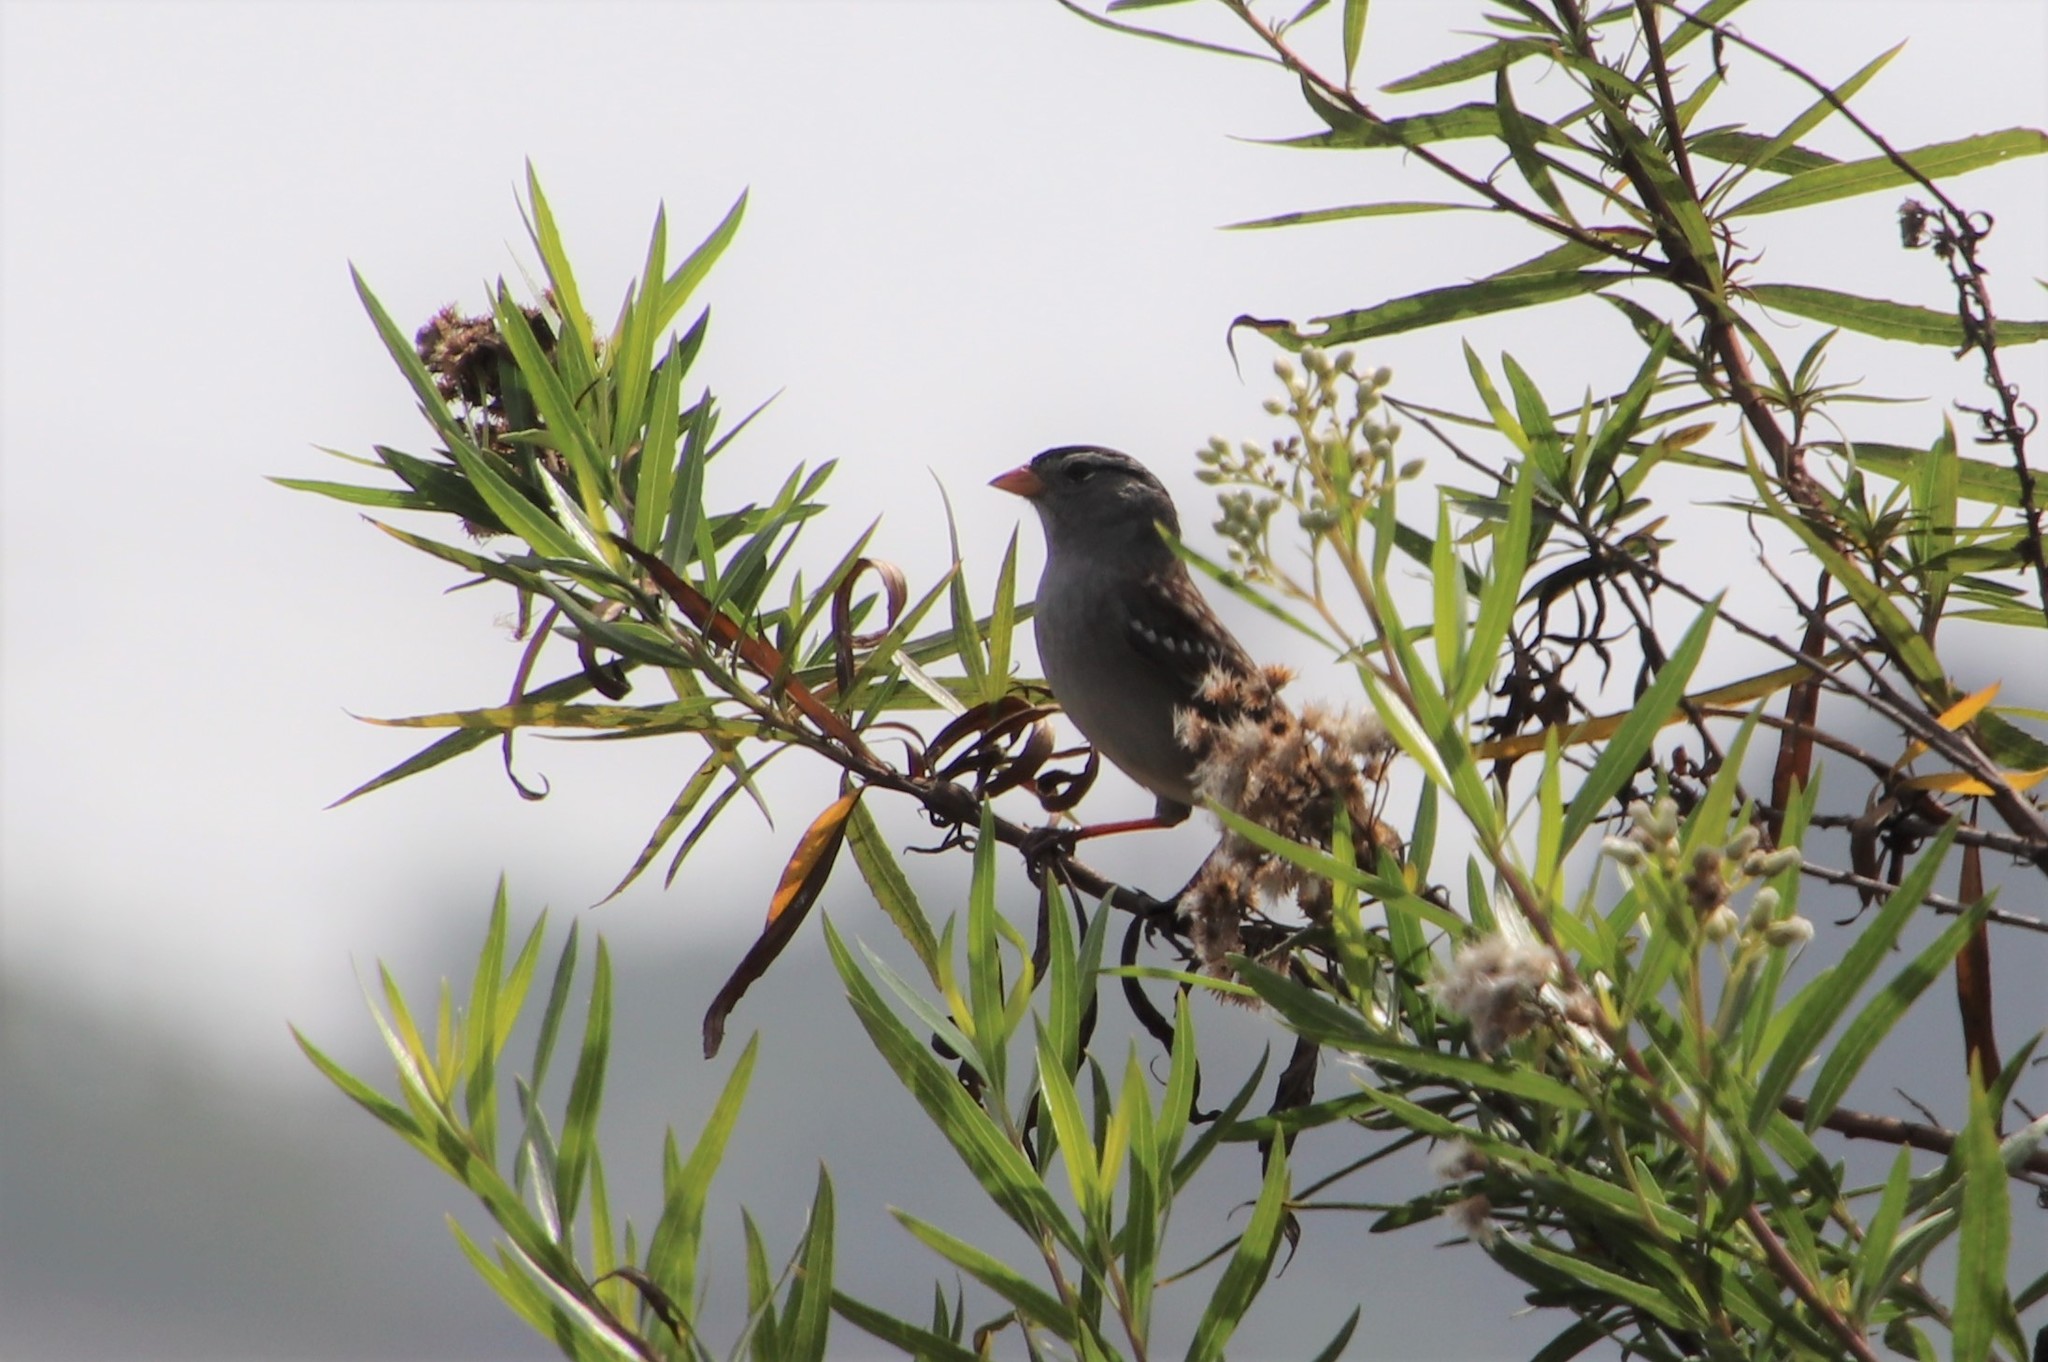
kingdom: Animalia
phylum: Chordata
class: Aves
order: Passeriformes
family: Passerellidae
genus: Zonotrichia
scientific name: Zonotrichia leucophrys
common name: White-crowned sparrow
